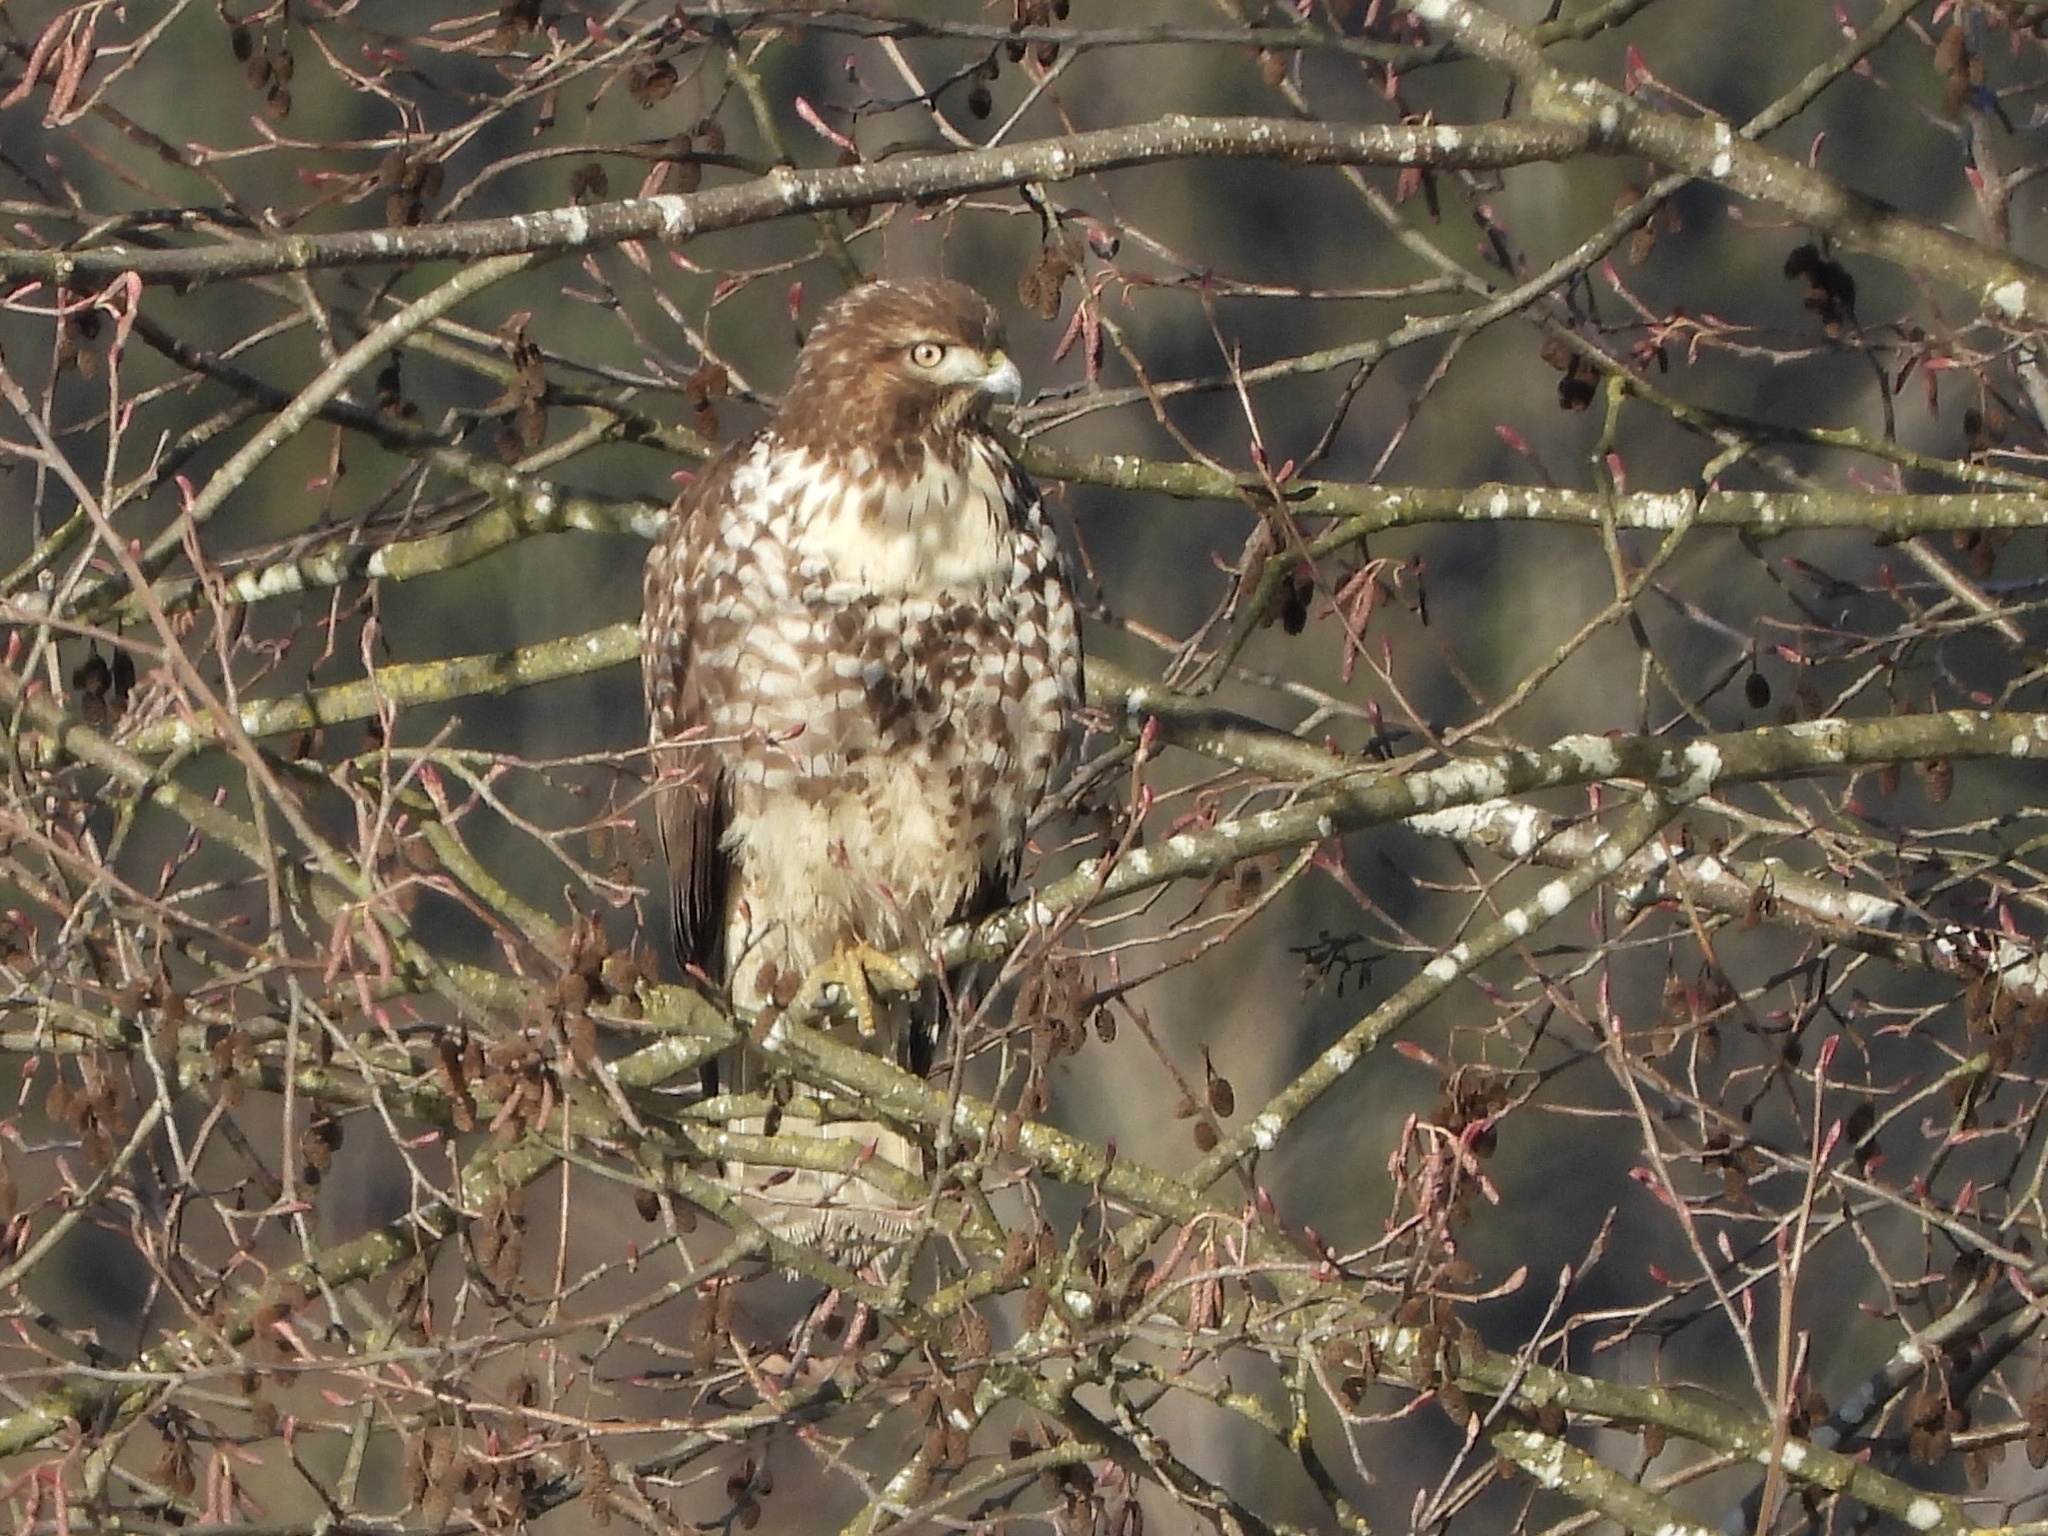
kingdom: Animalia
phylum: Chordata
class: Aves
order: Accipitriformes
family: Accipitridae
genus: Buteo
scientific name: Buteo jamaicensis
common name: Red-tailed hawk
